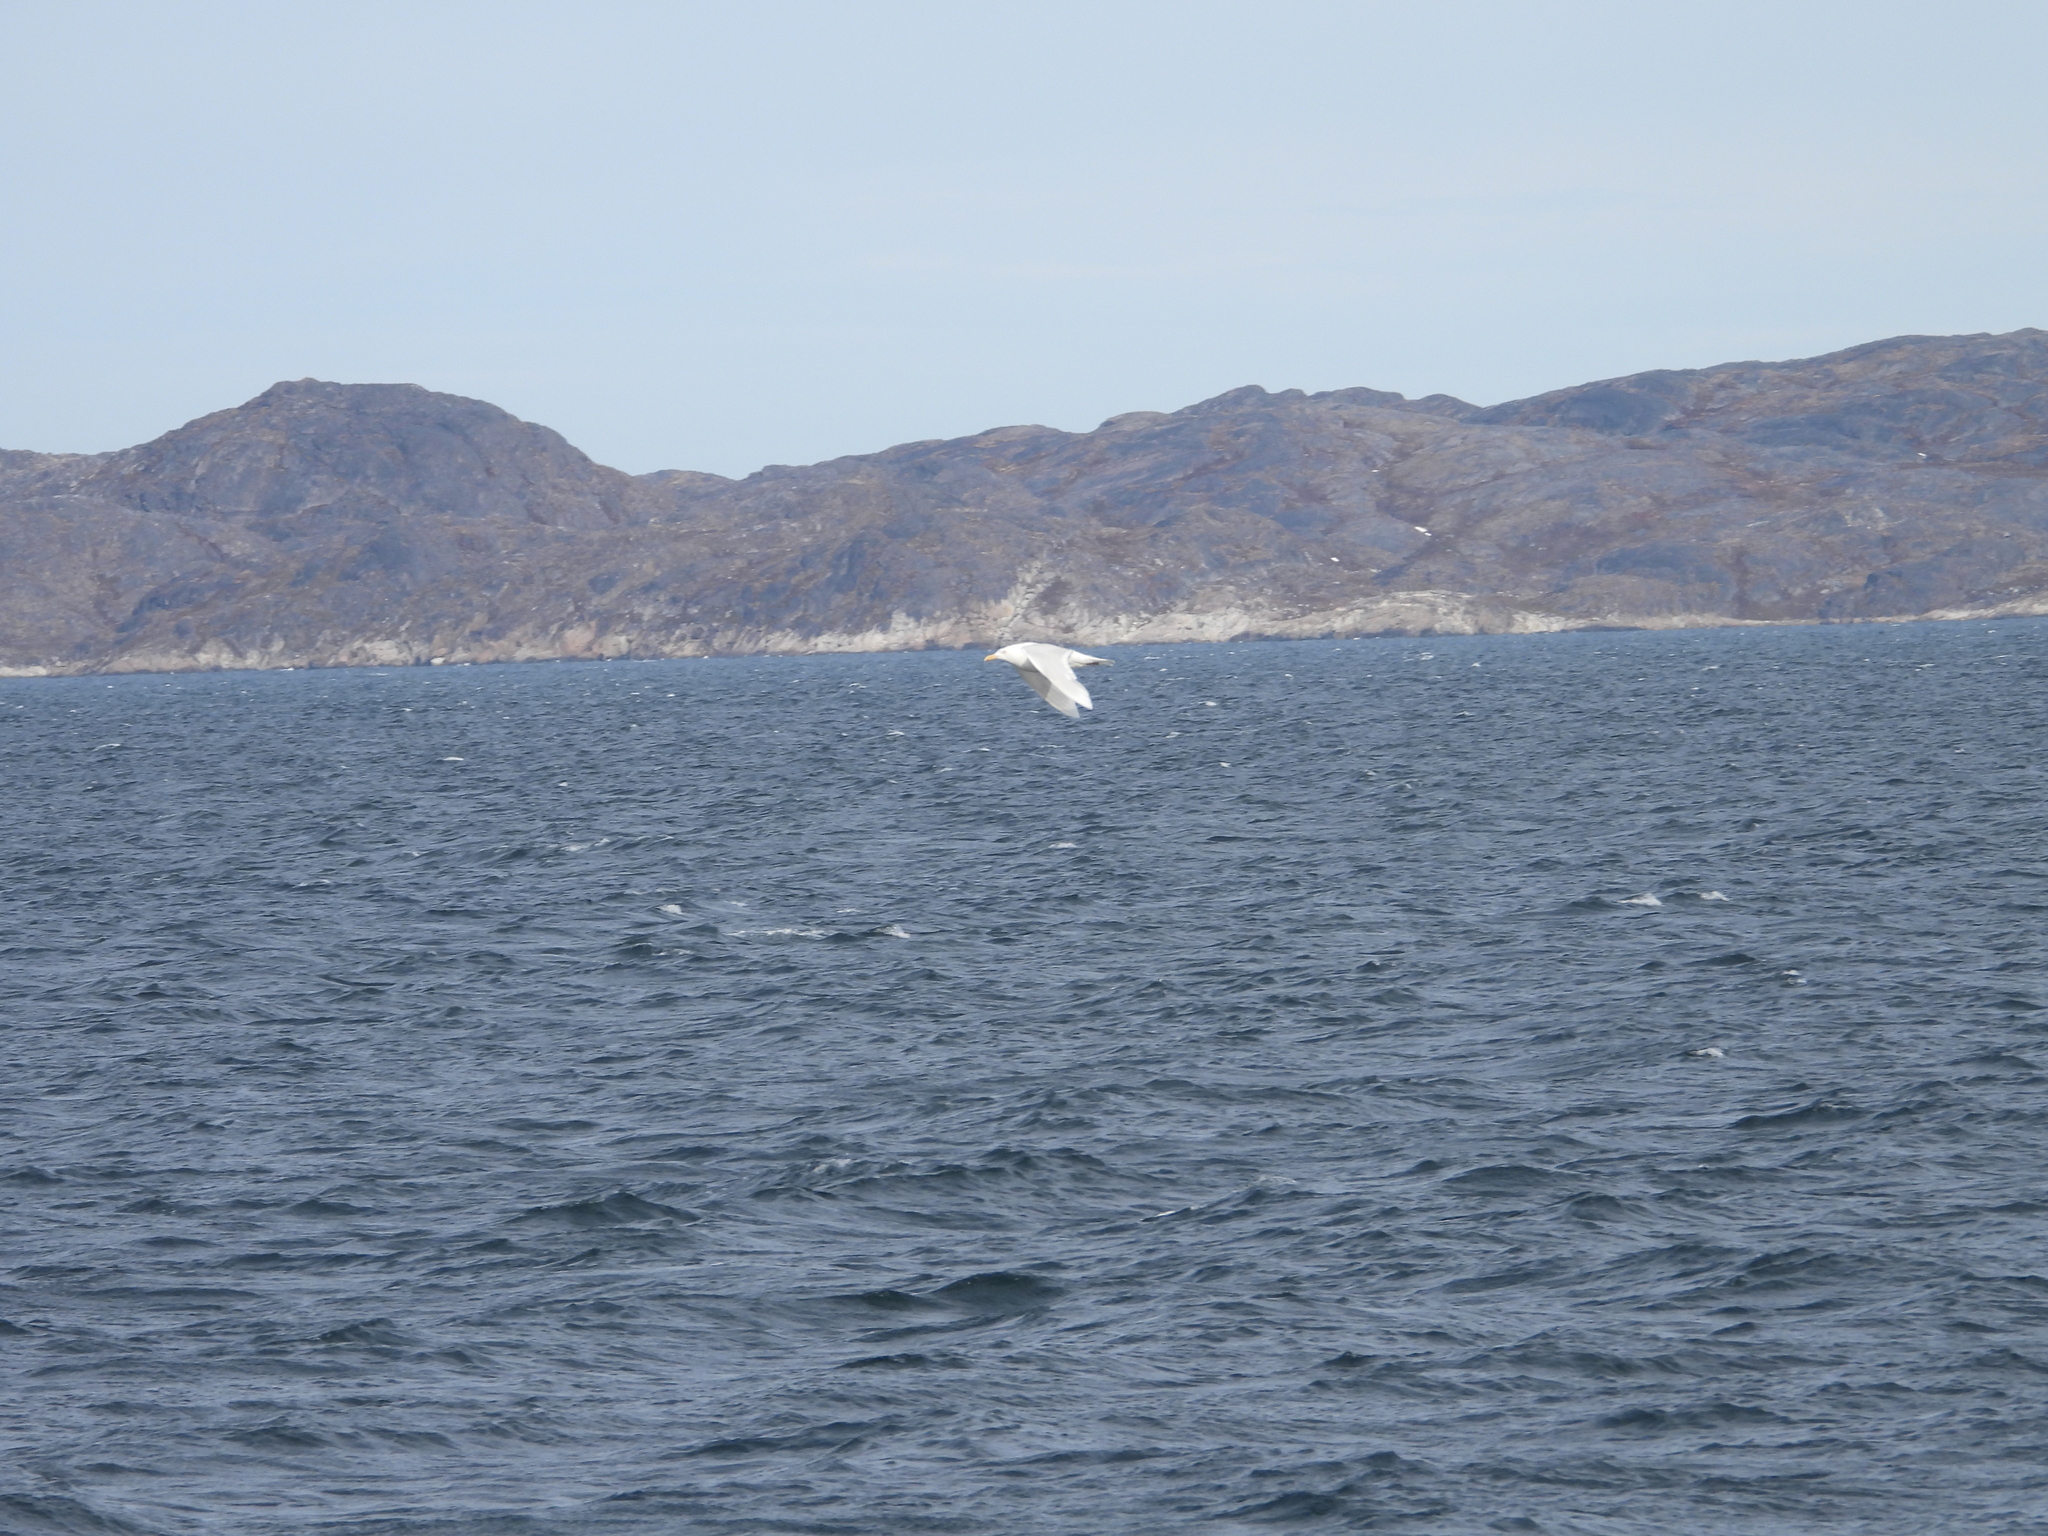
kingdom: Animalia
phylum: Chordata
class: Aves
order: Charadriiformes
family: Laridae
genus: Larus
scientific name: Larus hyperboreus
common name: Glaucous gull
